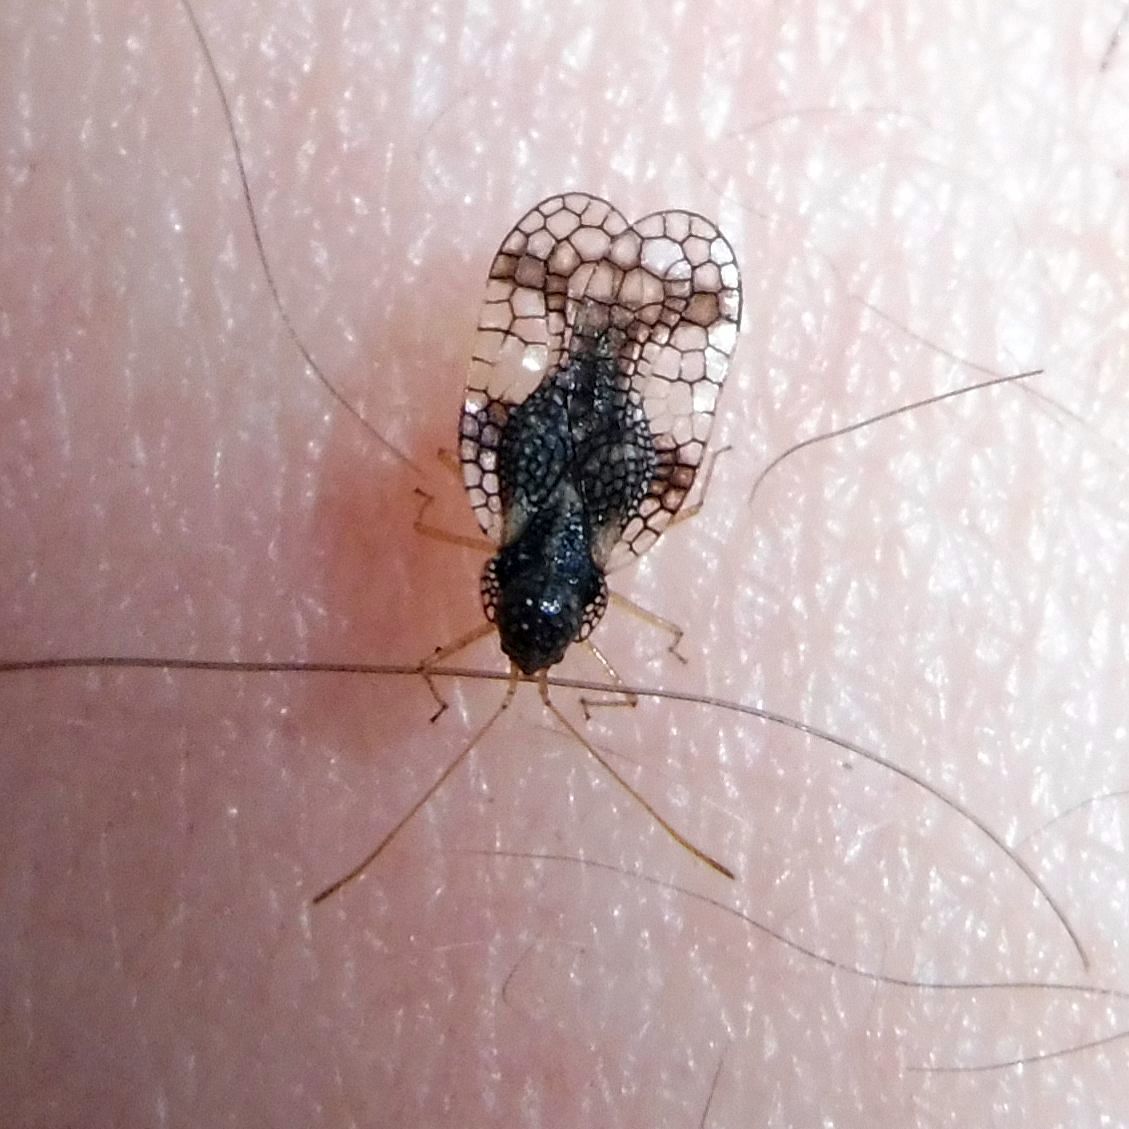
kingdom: Animalia
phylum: Arthropoda
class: Insecta
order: Hemiptera
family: Tingidae
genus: Stephanitis
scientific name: Stephanitis takeyai
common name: Andromeda lacebug
